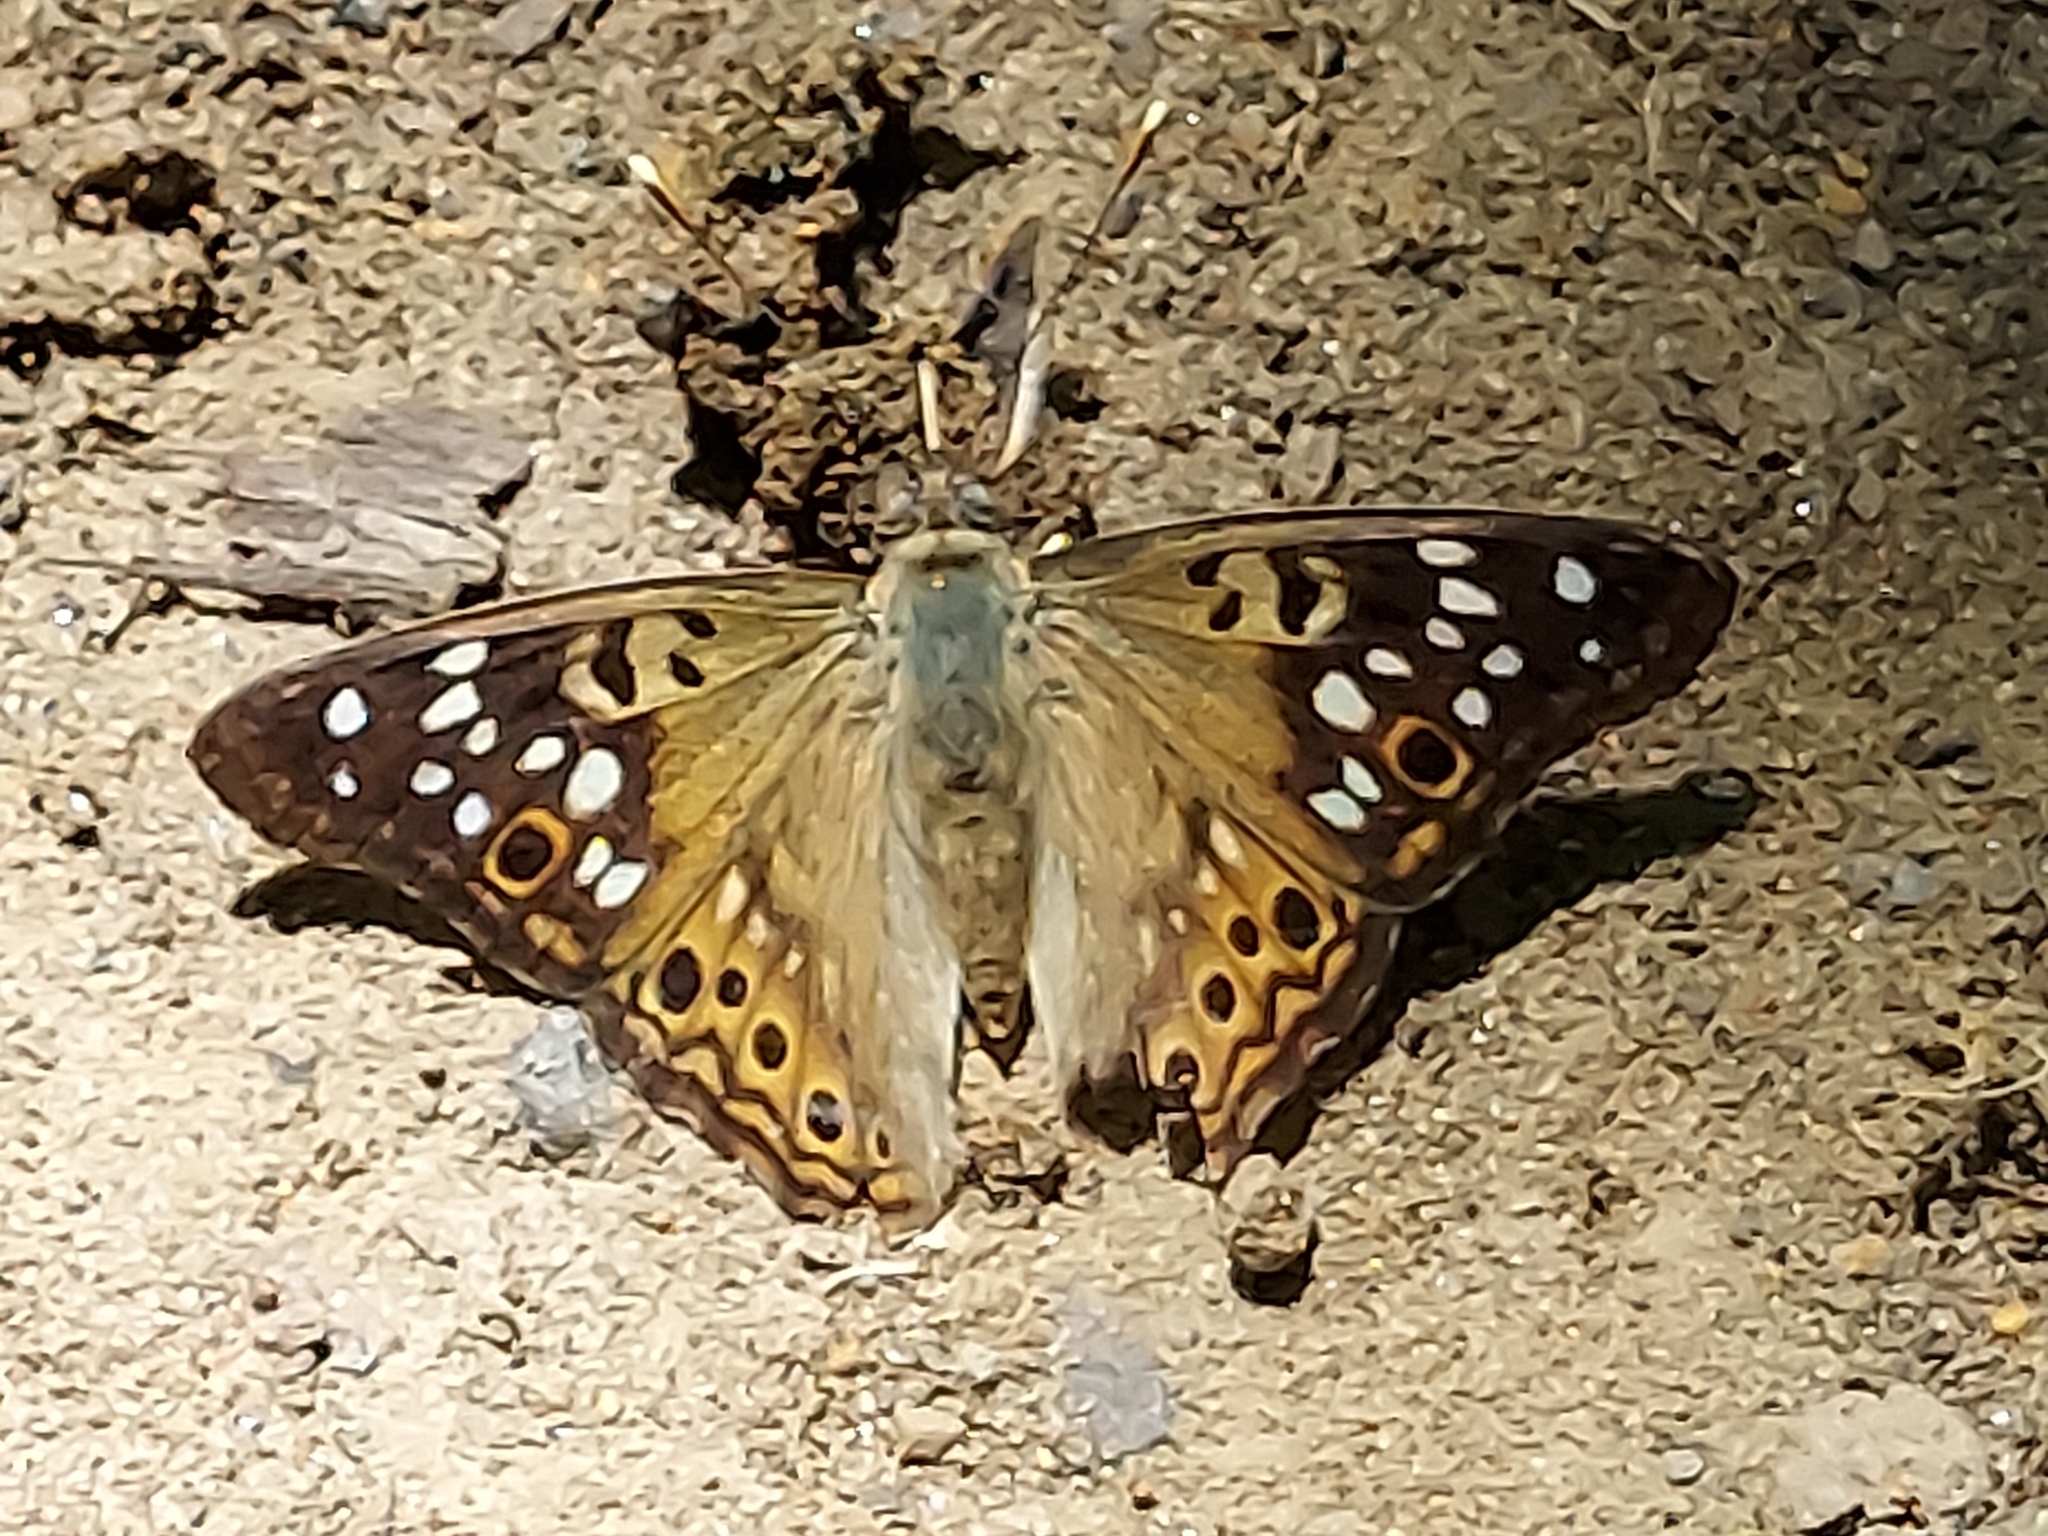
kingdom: Animalia
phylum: Arthropoda
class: Insecta
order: Lepidoptera
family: Nymphalidae
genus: Asterocampa
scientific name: Asterocampa celtis
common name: Hackberry emperor
